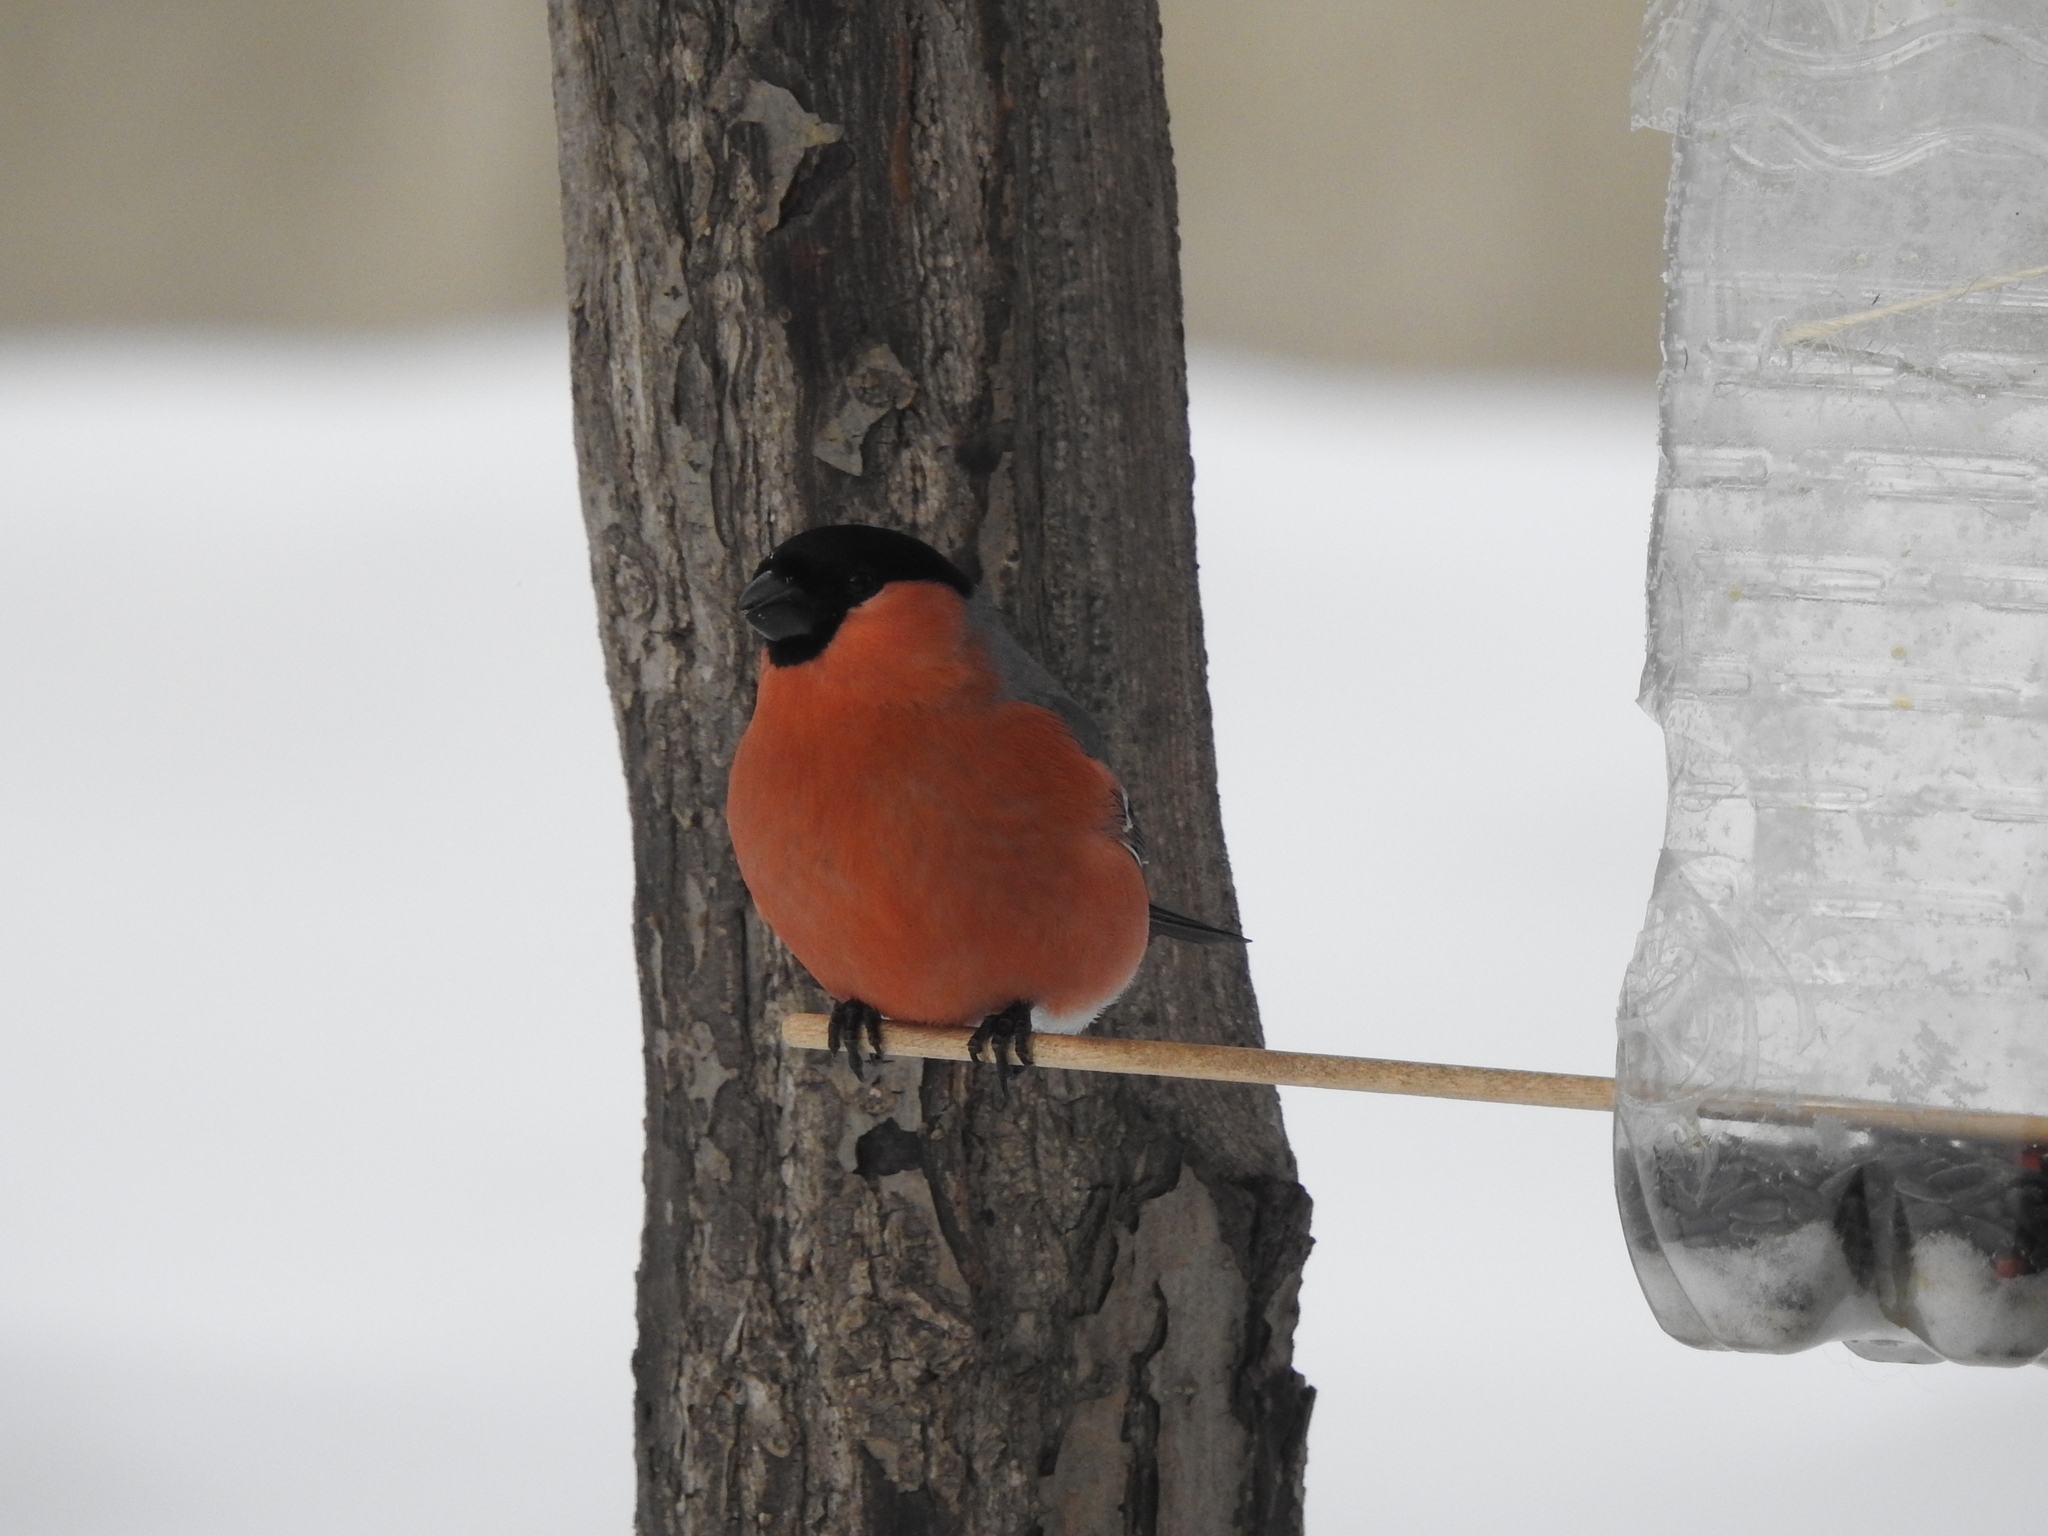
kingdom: Animalia
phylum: Chordata
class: Aves
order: Passeriformes
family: Fringillidae
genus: Pyrrhula
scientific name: Pyrrhula pyrrhula
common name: Eurasian bullfinch
